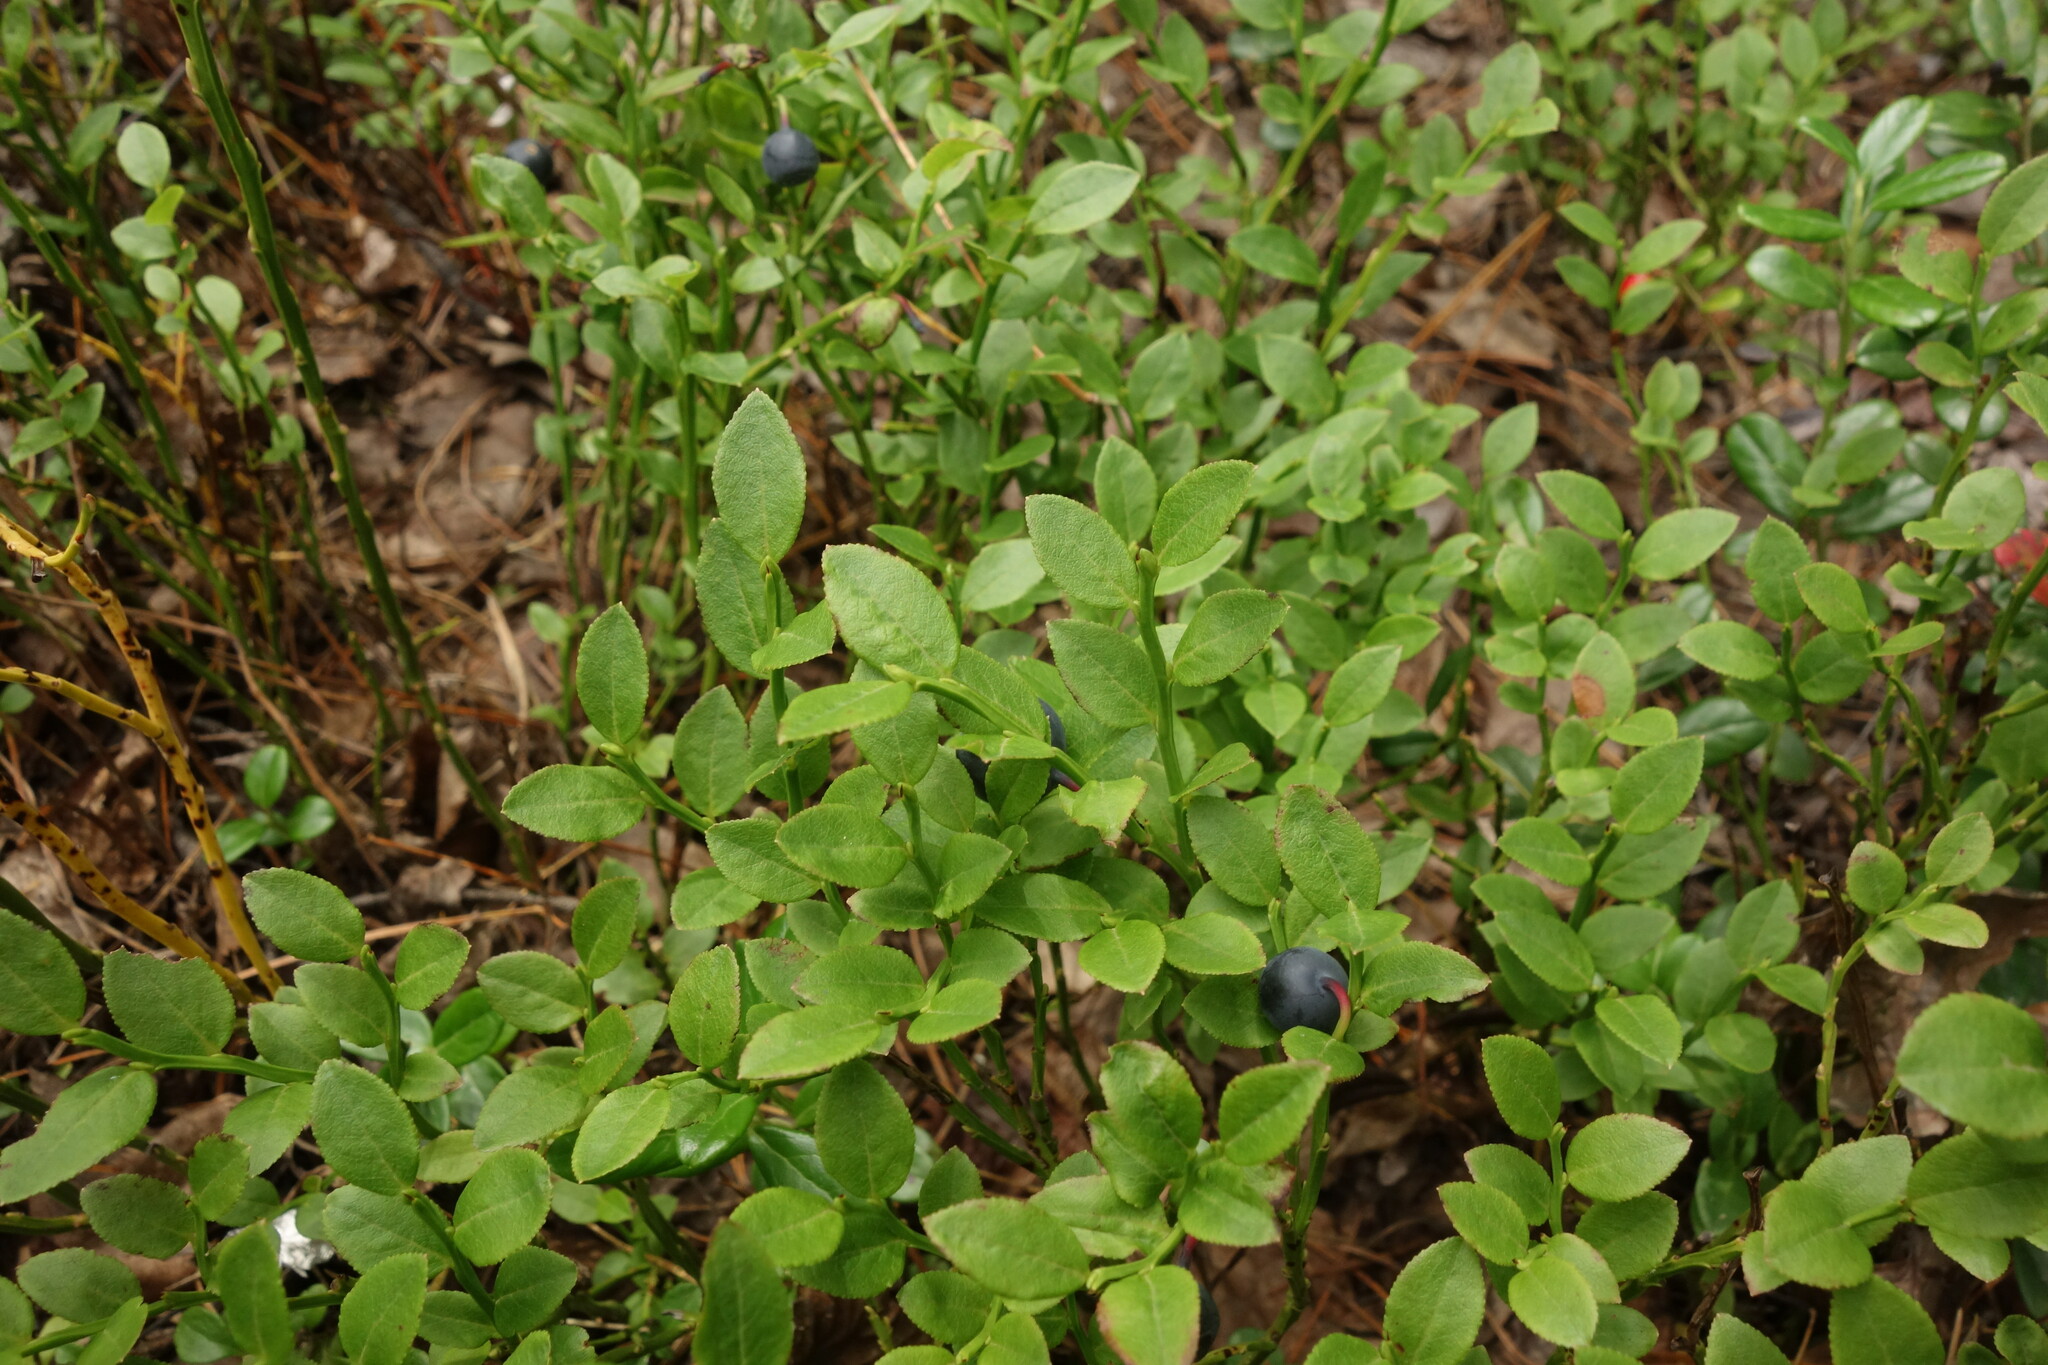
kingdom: Plantae
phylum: Tracheophyta
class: Magnoliopsida
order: Ericales
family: Ericaceae
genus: Vaccinium
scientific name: Vaccinium myrtillus
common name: Bilberry
